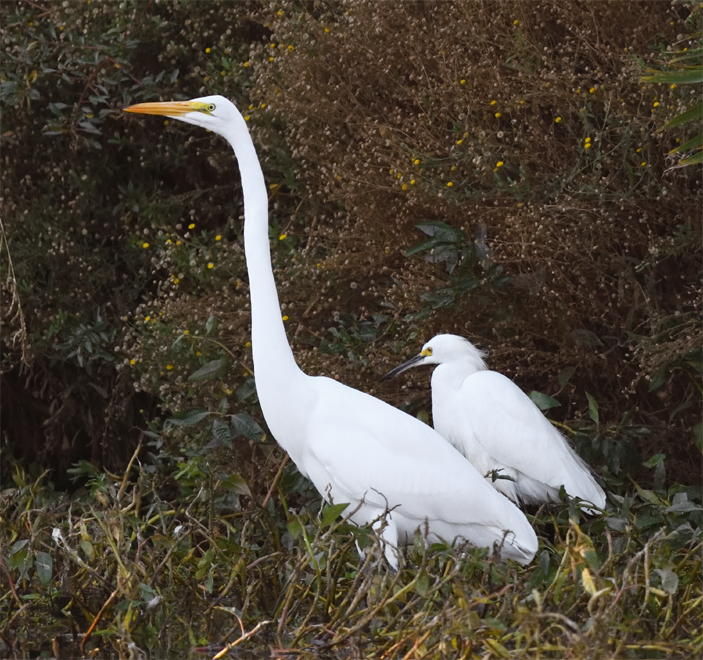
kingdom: Animalia
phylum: Chordata
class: Aves
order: Pelecaniformes
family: Ardeidae
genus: Ardea
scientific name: Ardea alba
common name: Great egret
